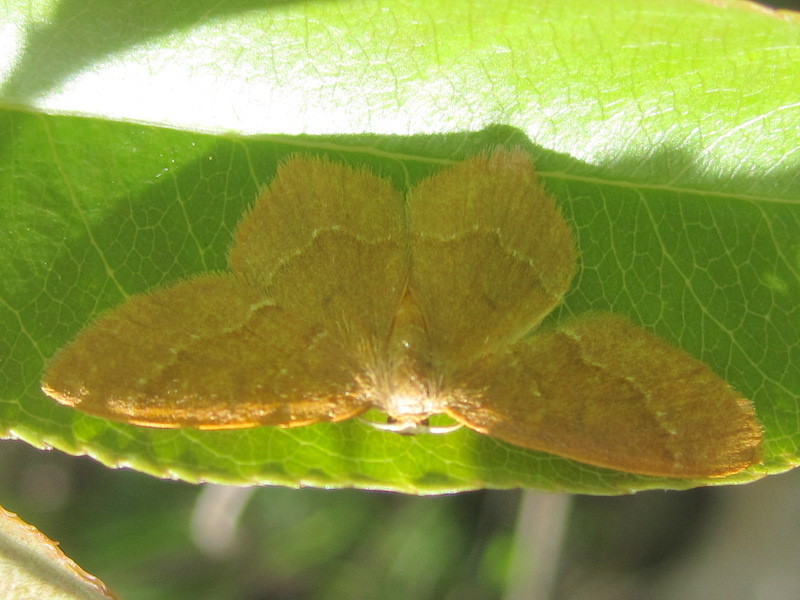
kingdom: Animalia
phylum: Arthropoda
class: Insecta
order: Lepidoptera
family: Geometridae
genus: Thalera
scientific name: Thalera pistasciaria
